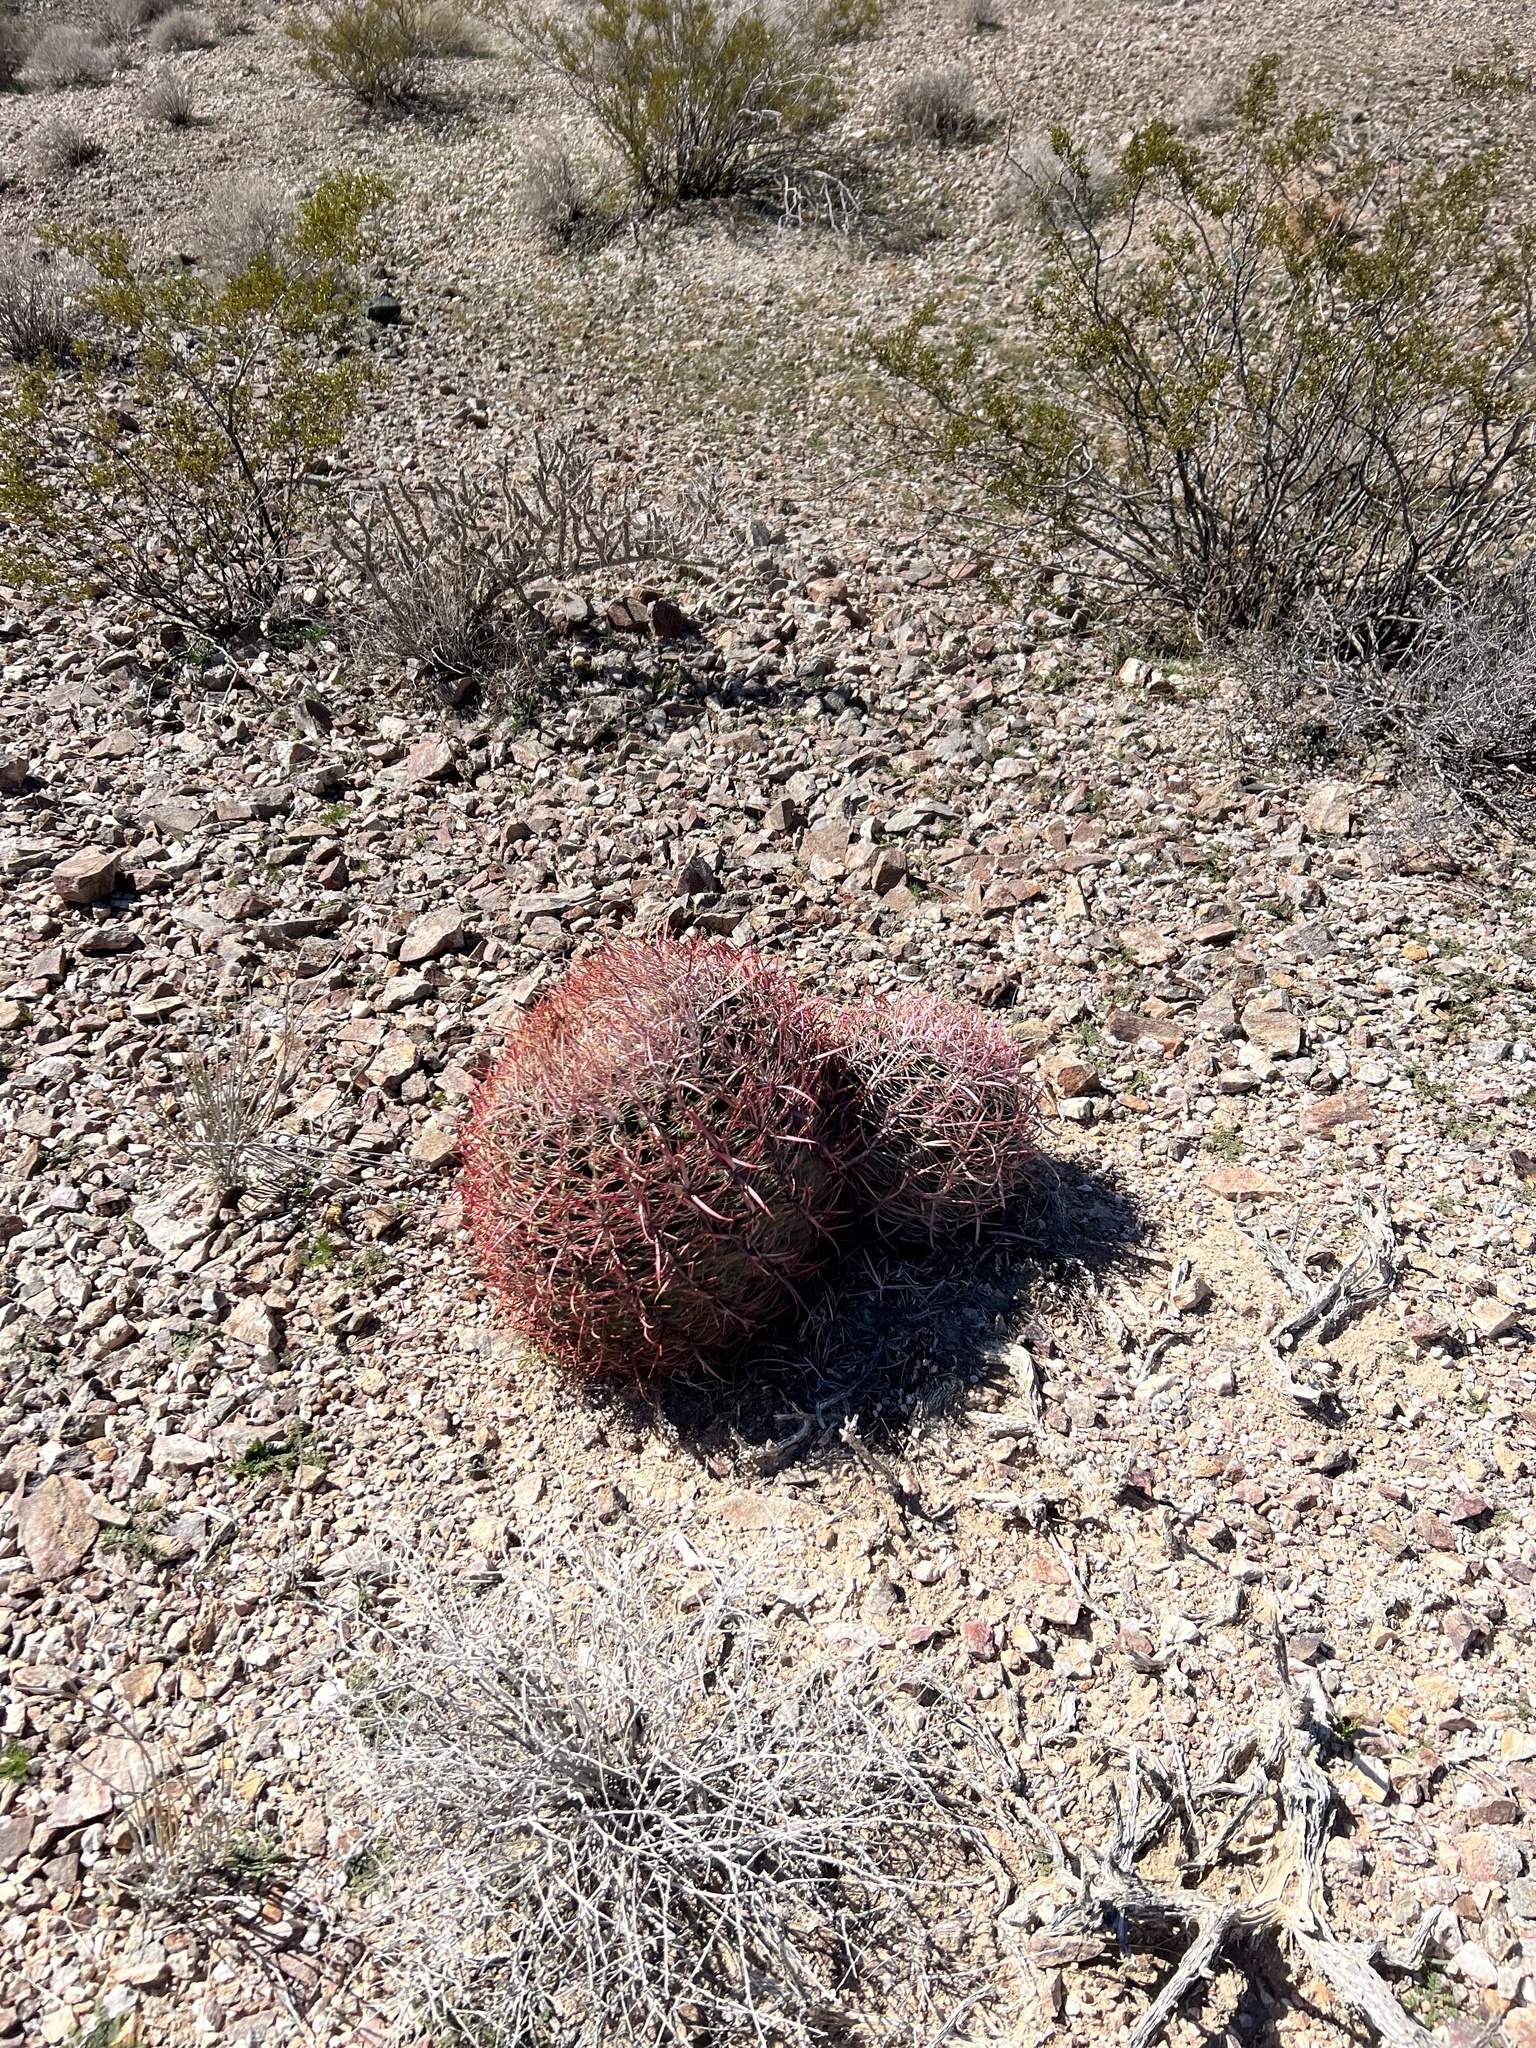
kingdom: Plantae
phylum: Tracheophyta
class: Magnoliopsida
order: Caryophyllales
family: Cactaceae
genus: Ferocactus
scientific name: Ferocactus cylindraceus
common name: California barrel cactus
